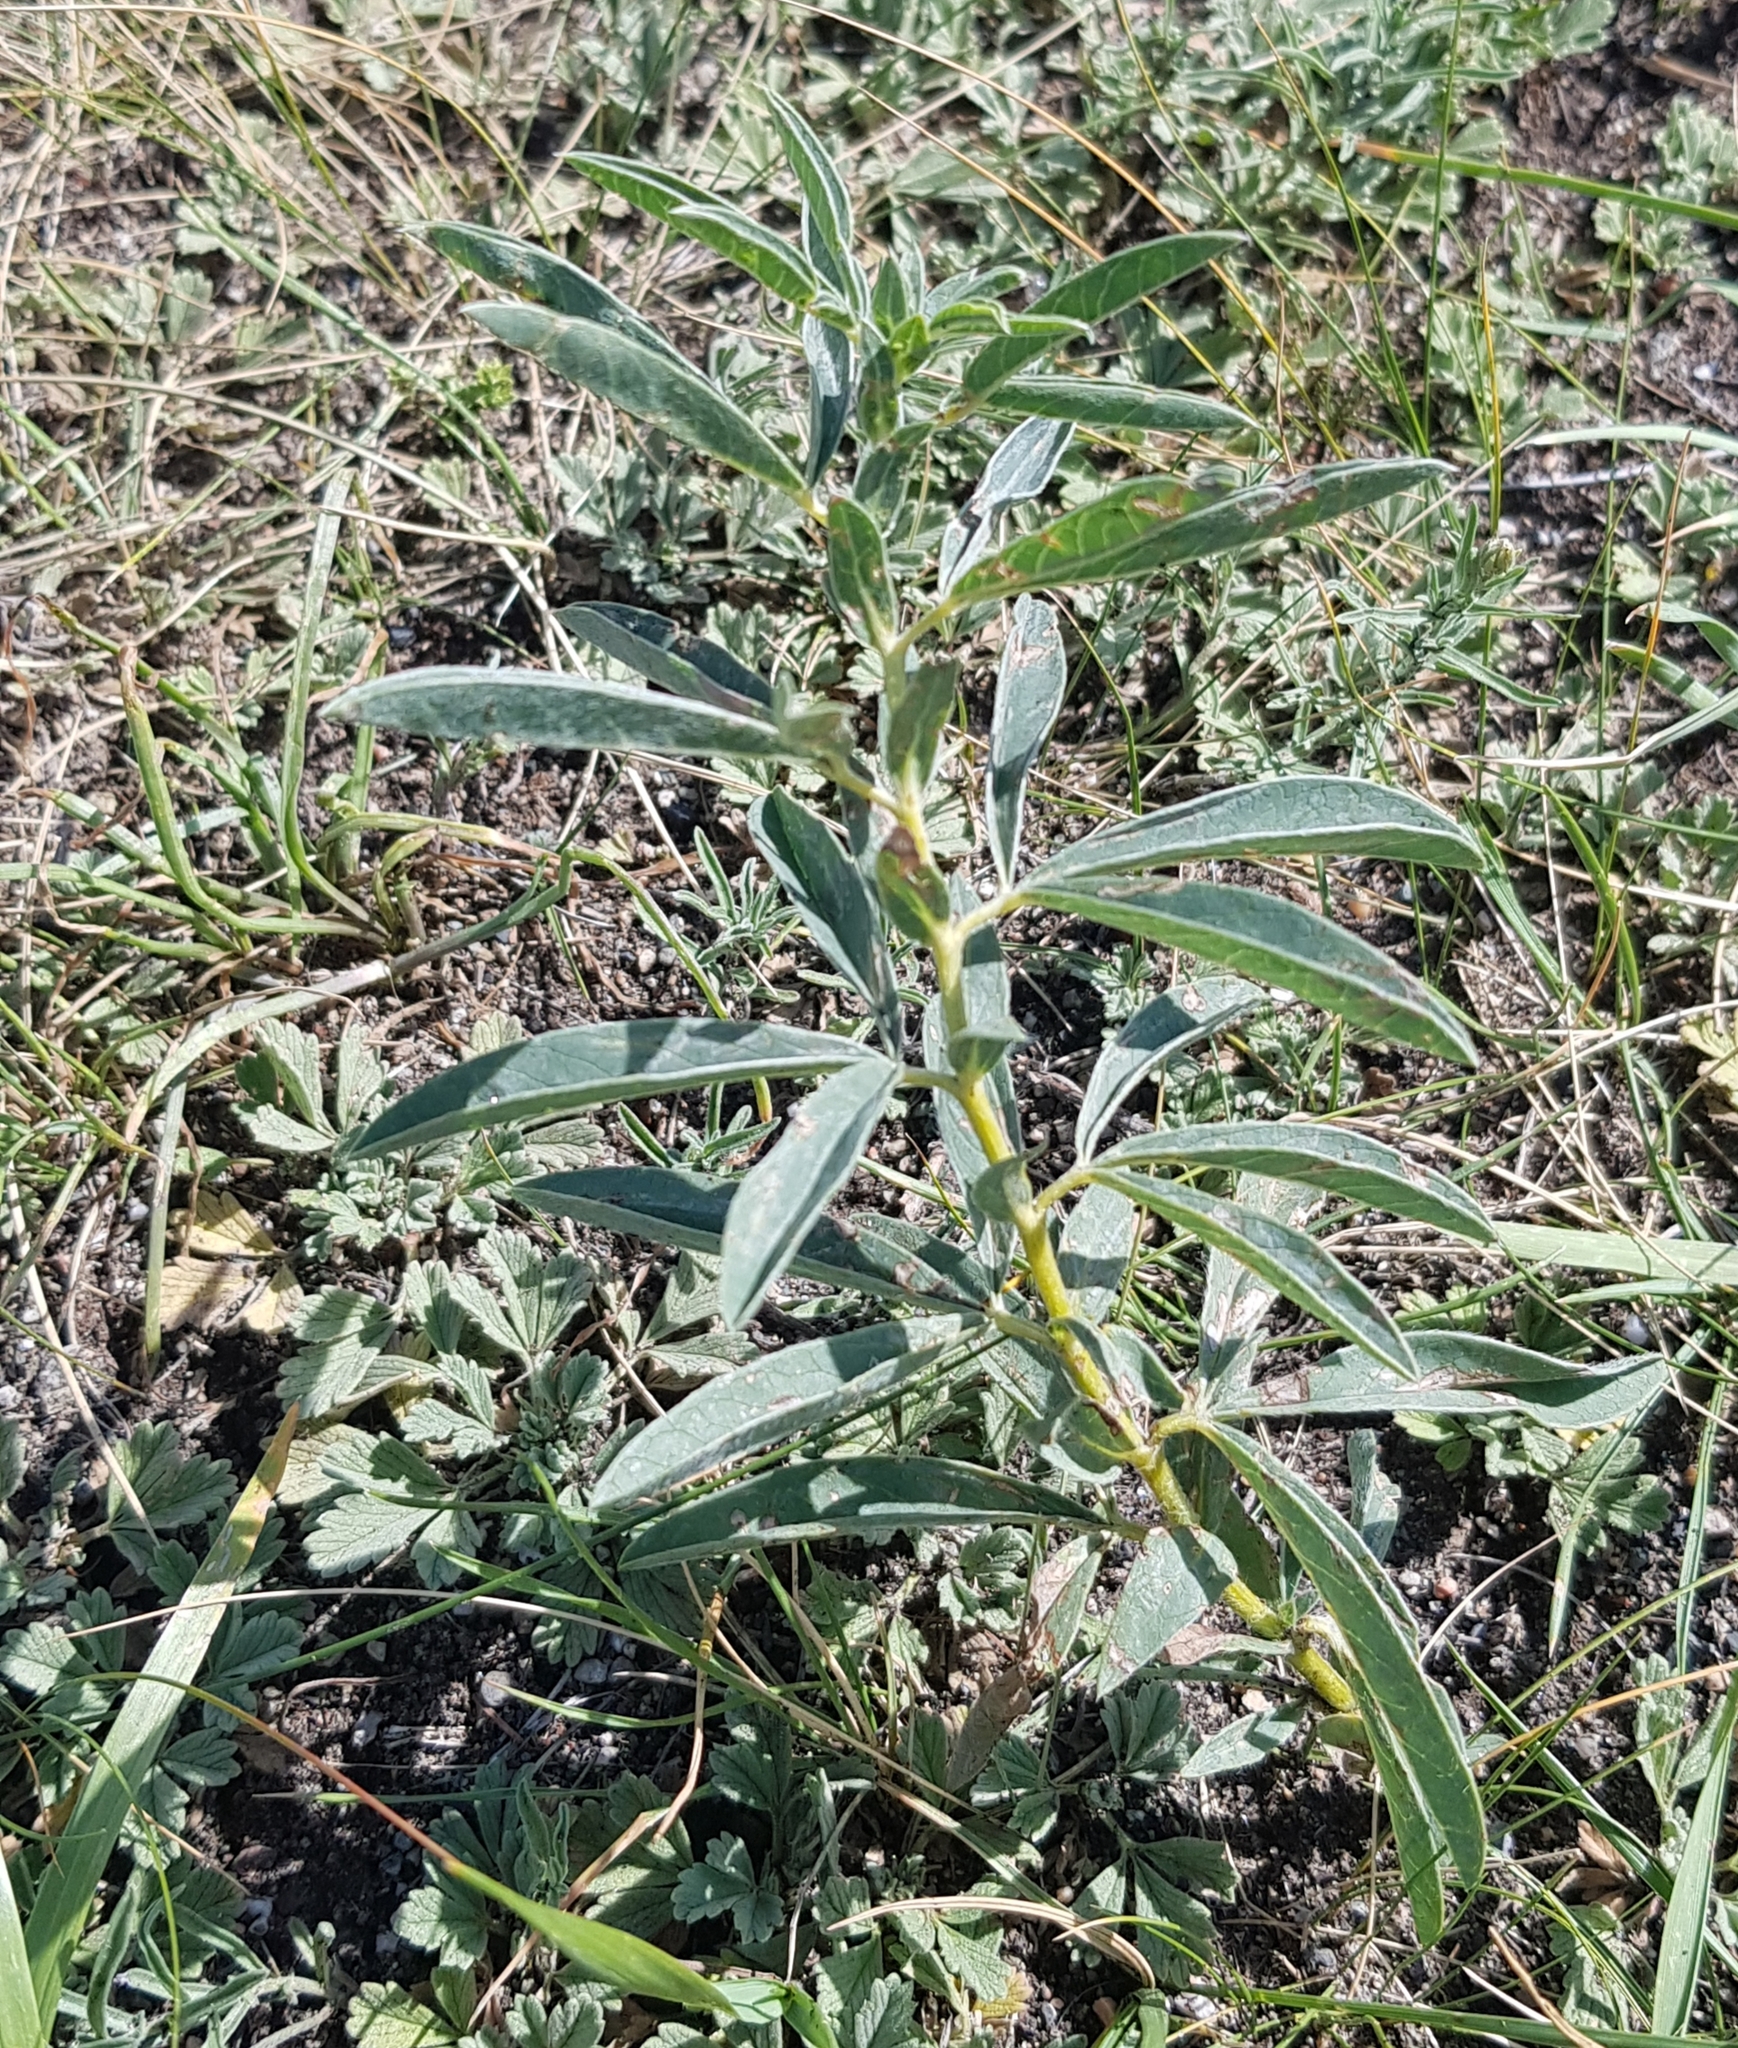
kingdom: Plantae
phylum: Tracheophyta
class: Magnoliopsida
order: Fabales
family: Fabaceae
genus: Thermopsis
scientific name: Thermopsis lanceolata
